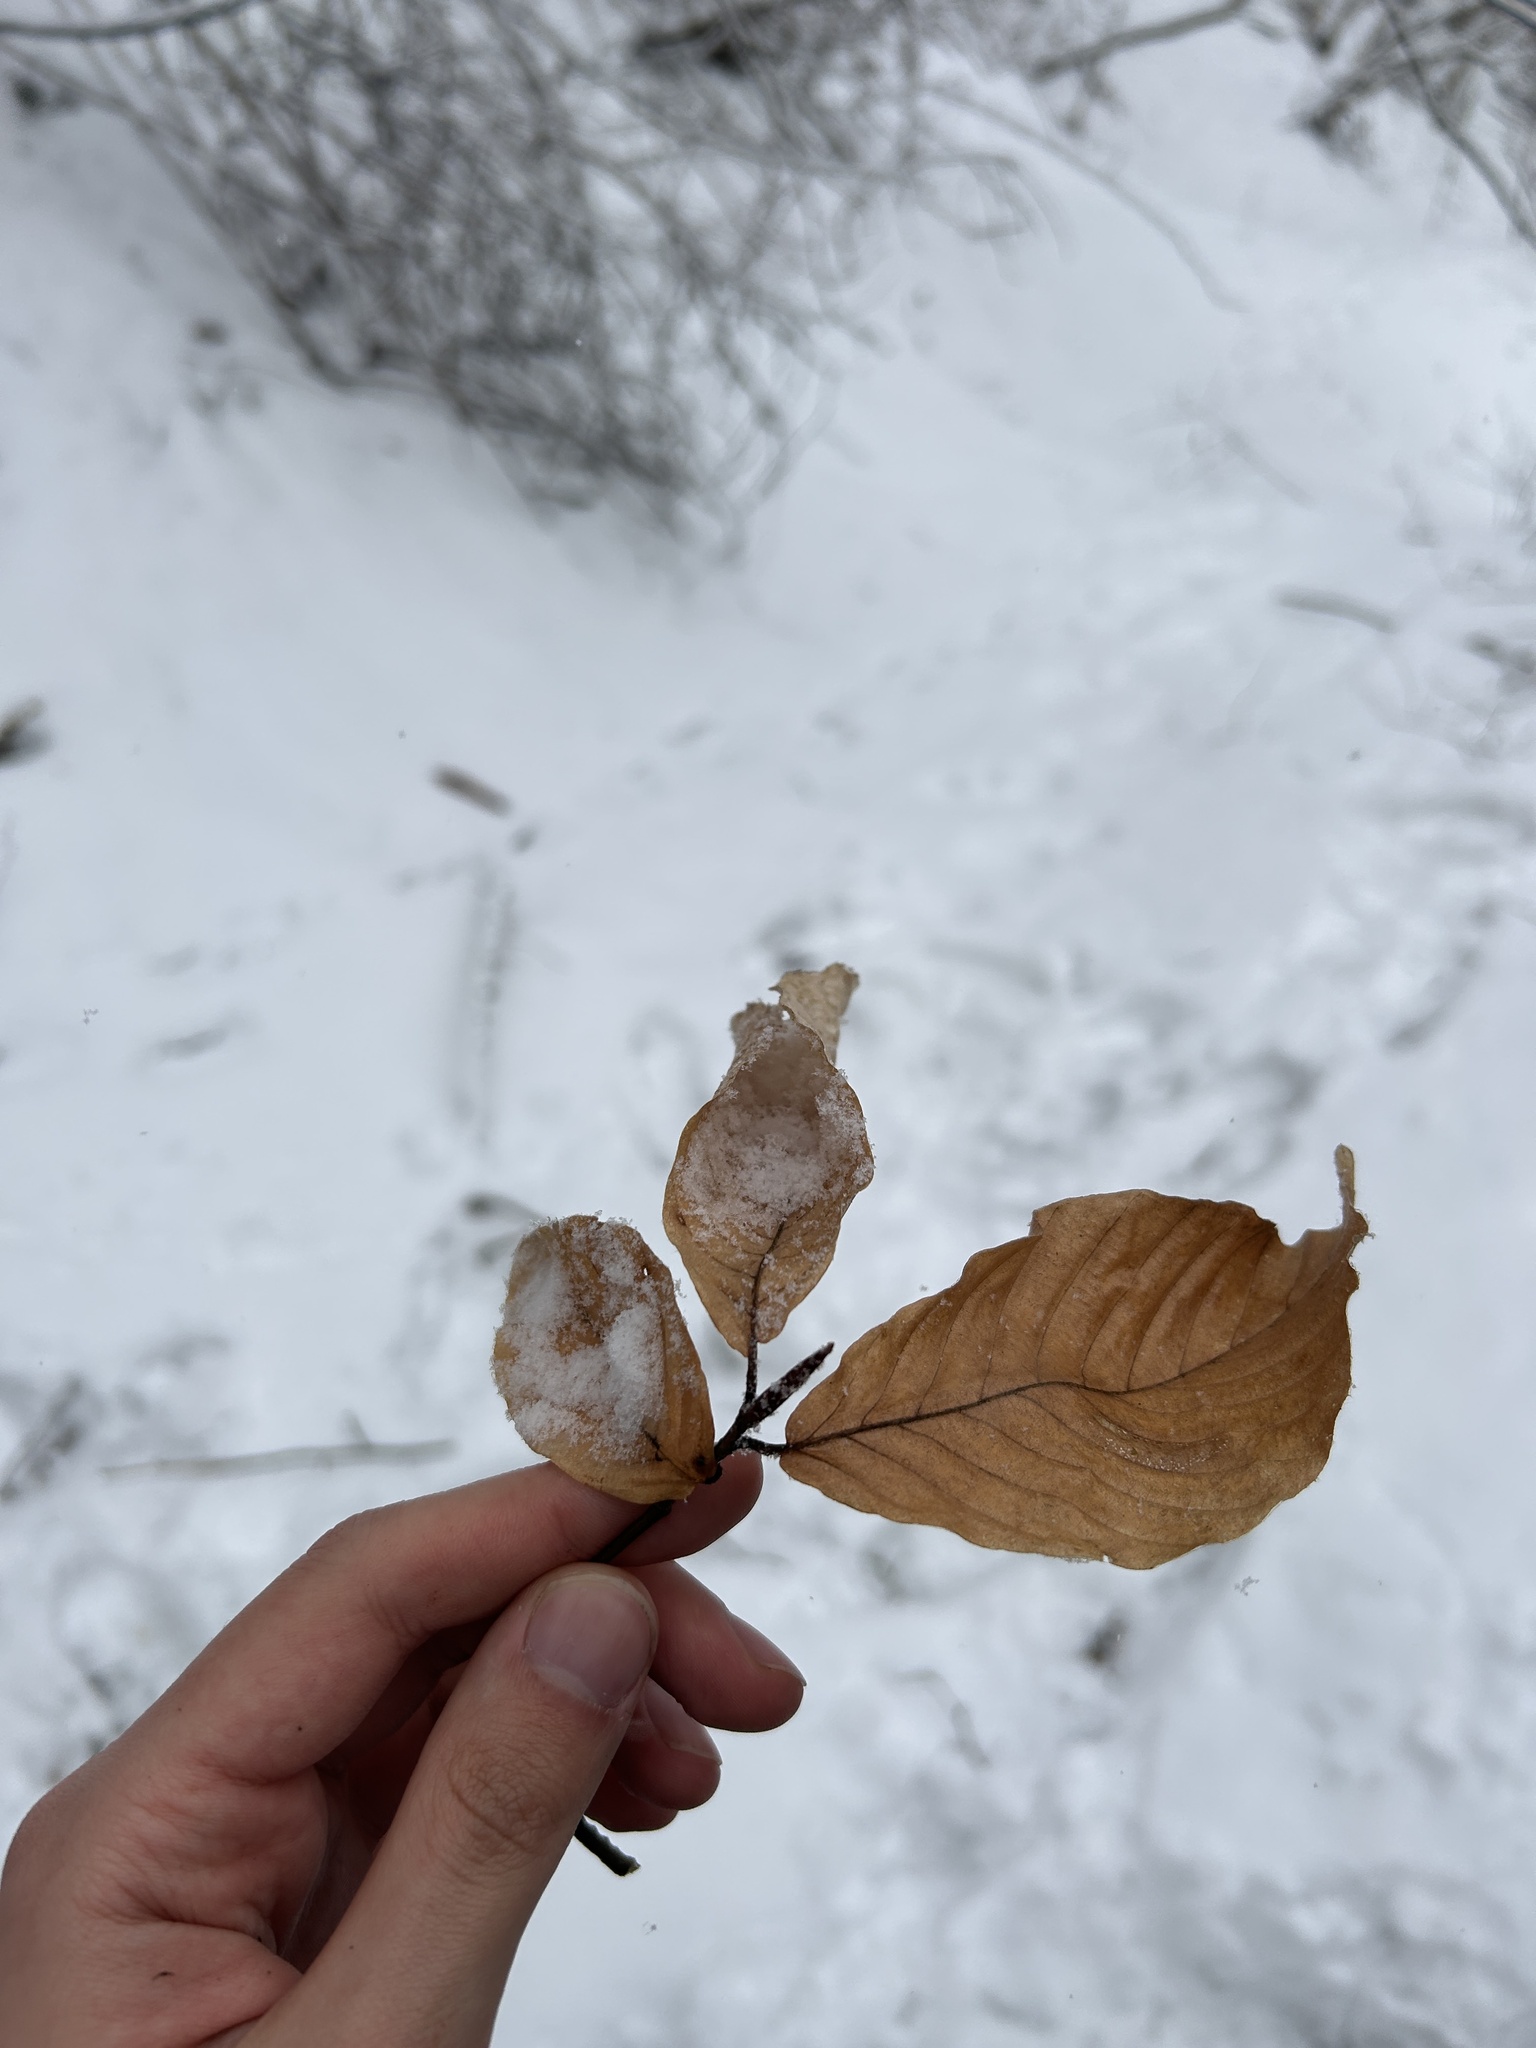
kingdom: Plantae
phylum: Tracheophyta
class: Magnoliopsida
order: Fagales
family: Fagaceae
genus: Fagus
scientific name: Fagus orientalis
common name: Oriental beech
